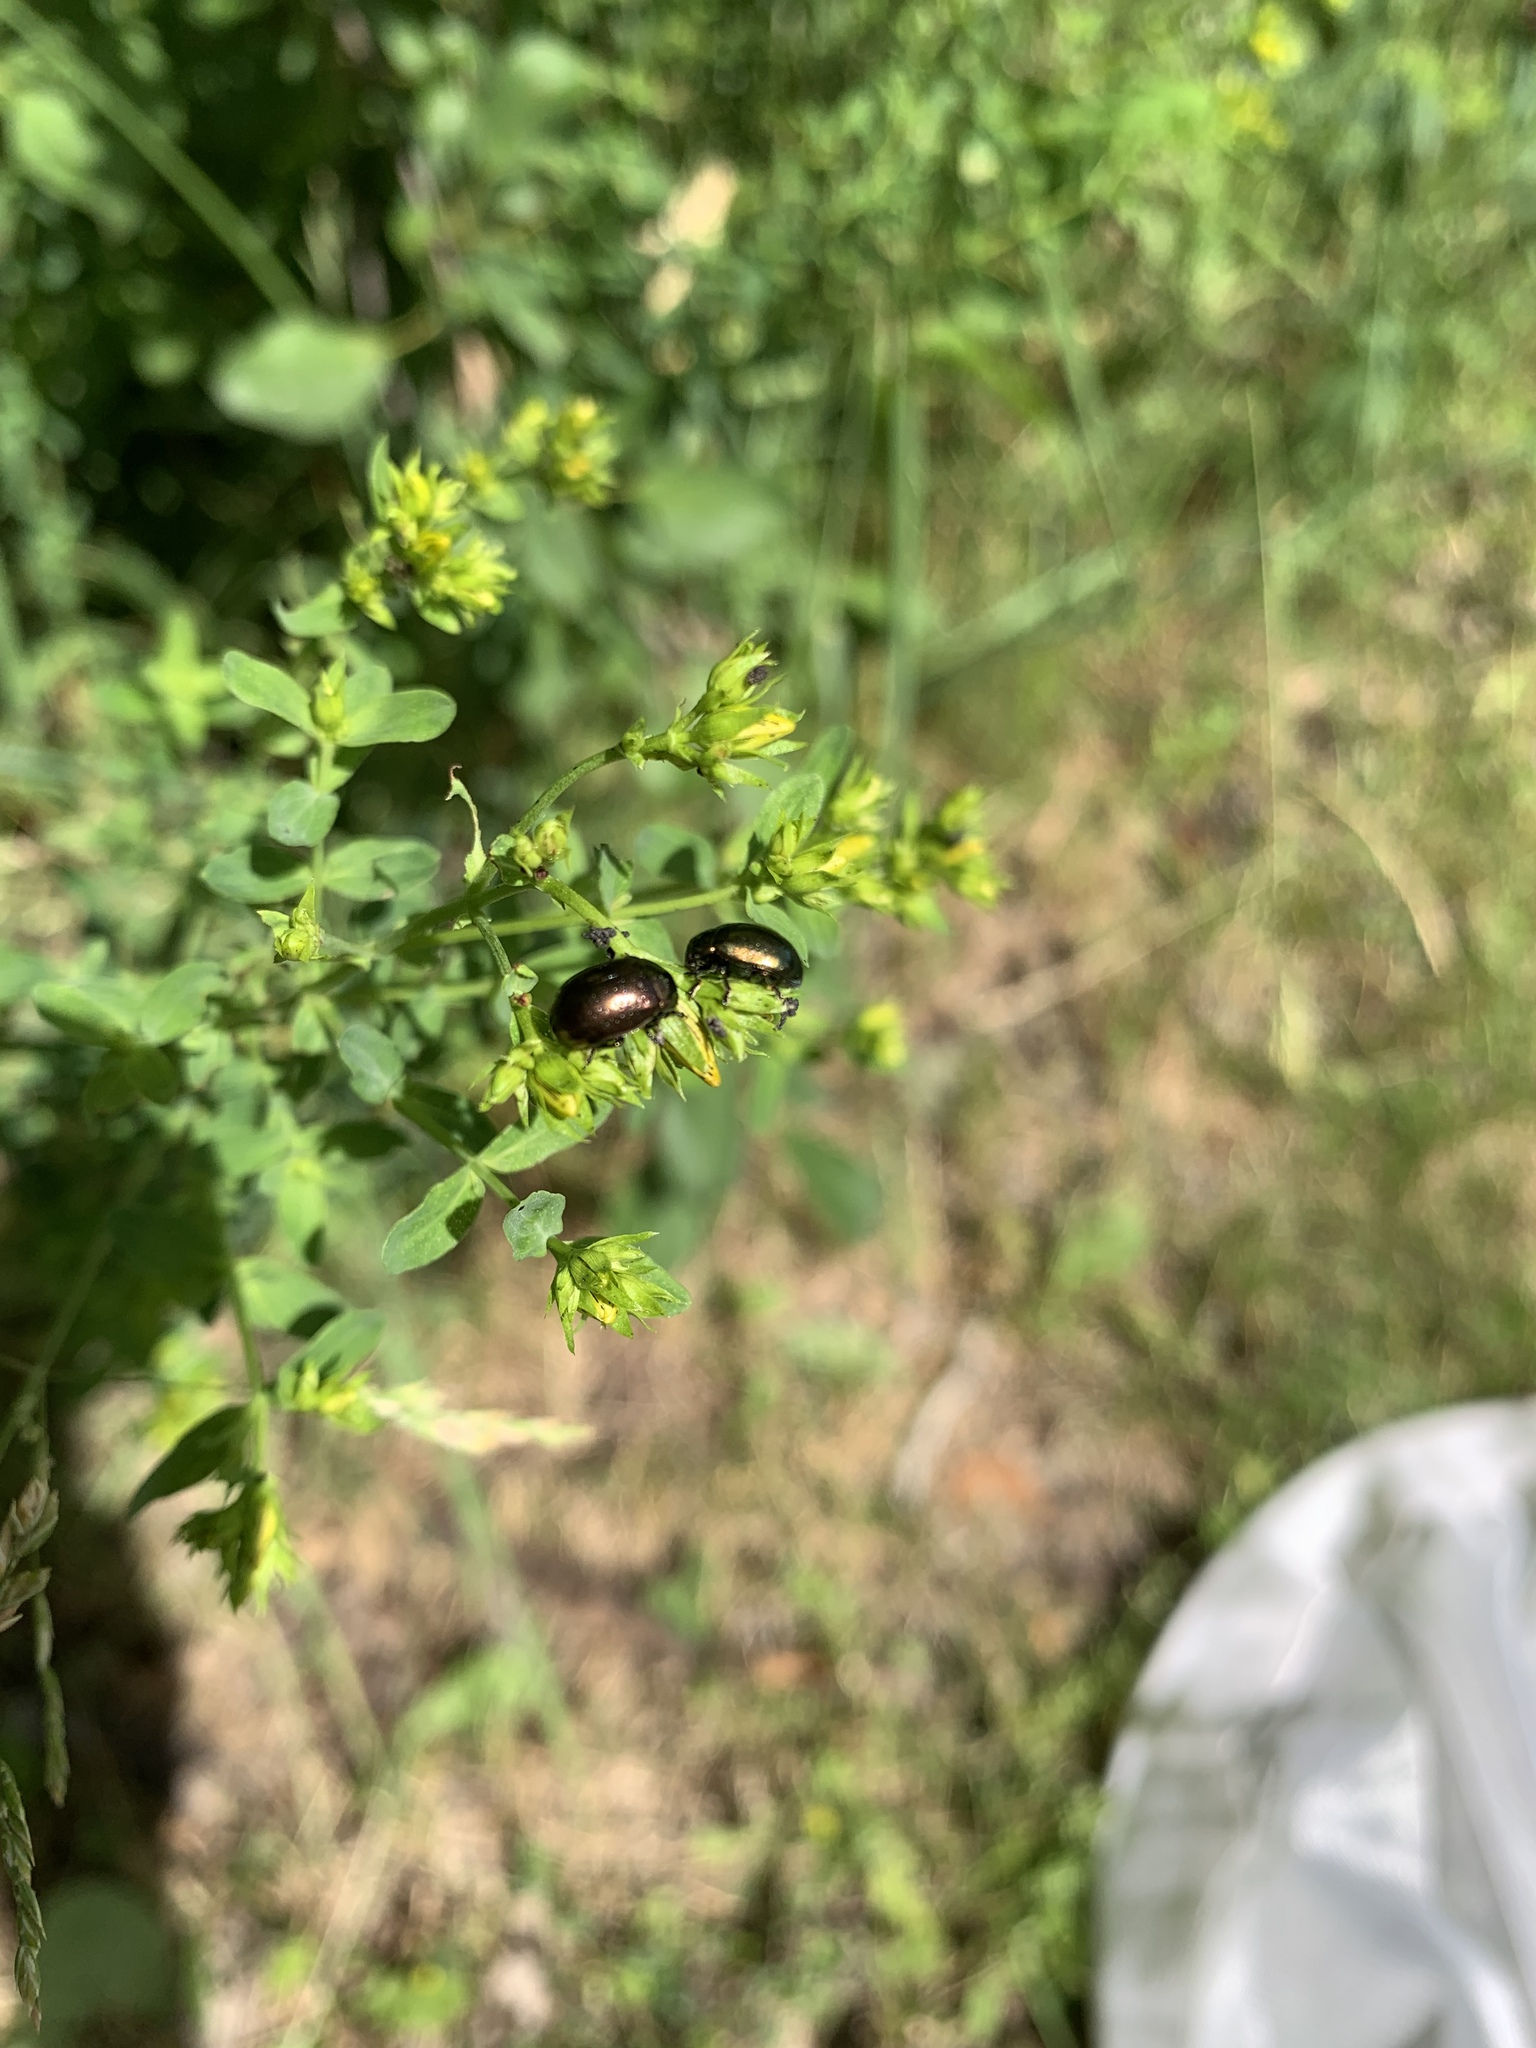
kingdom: Animalia
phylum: Arthropoda
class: Insecta
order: Coleoptera
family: Chrysomelidae
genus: Chrysolina
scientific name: Chrysolina hyperici
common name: St. johnswort beetle
